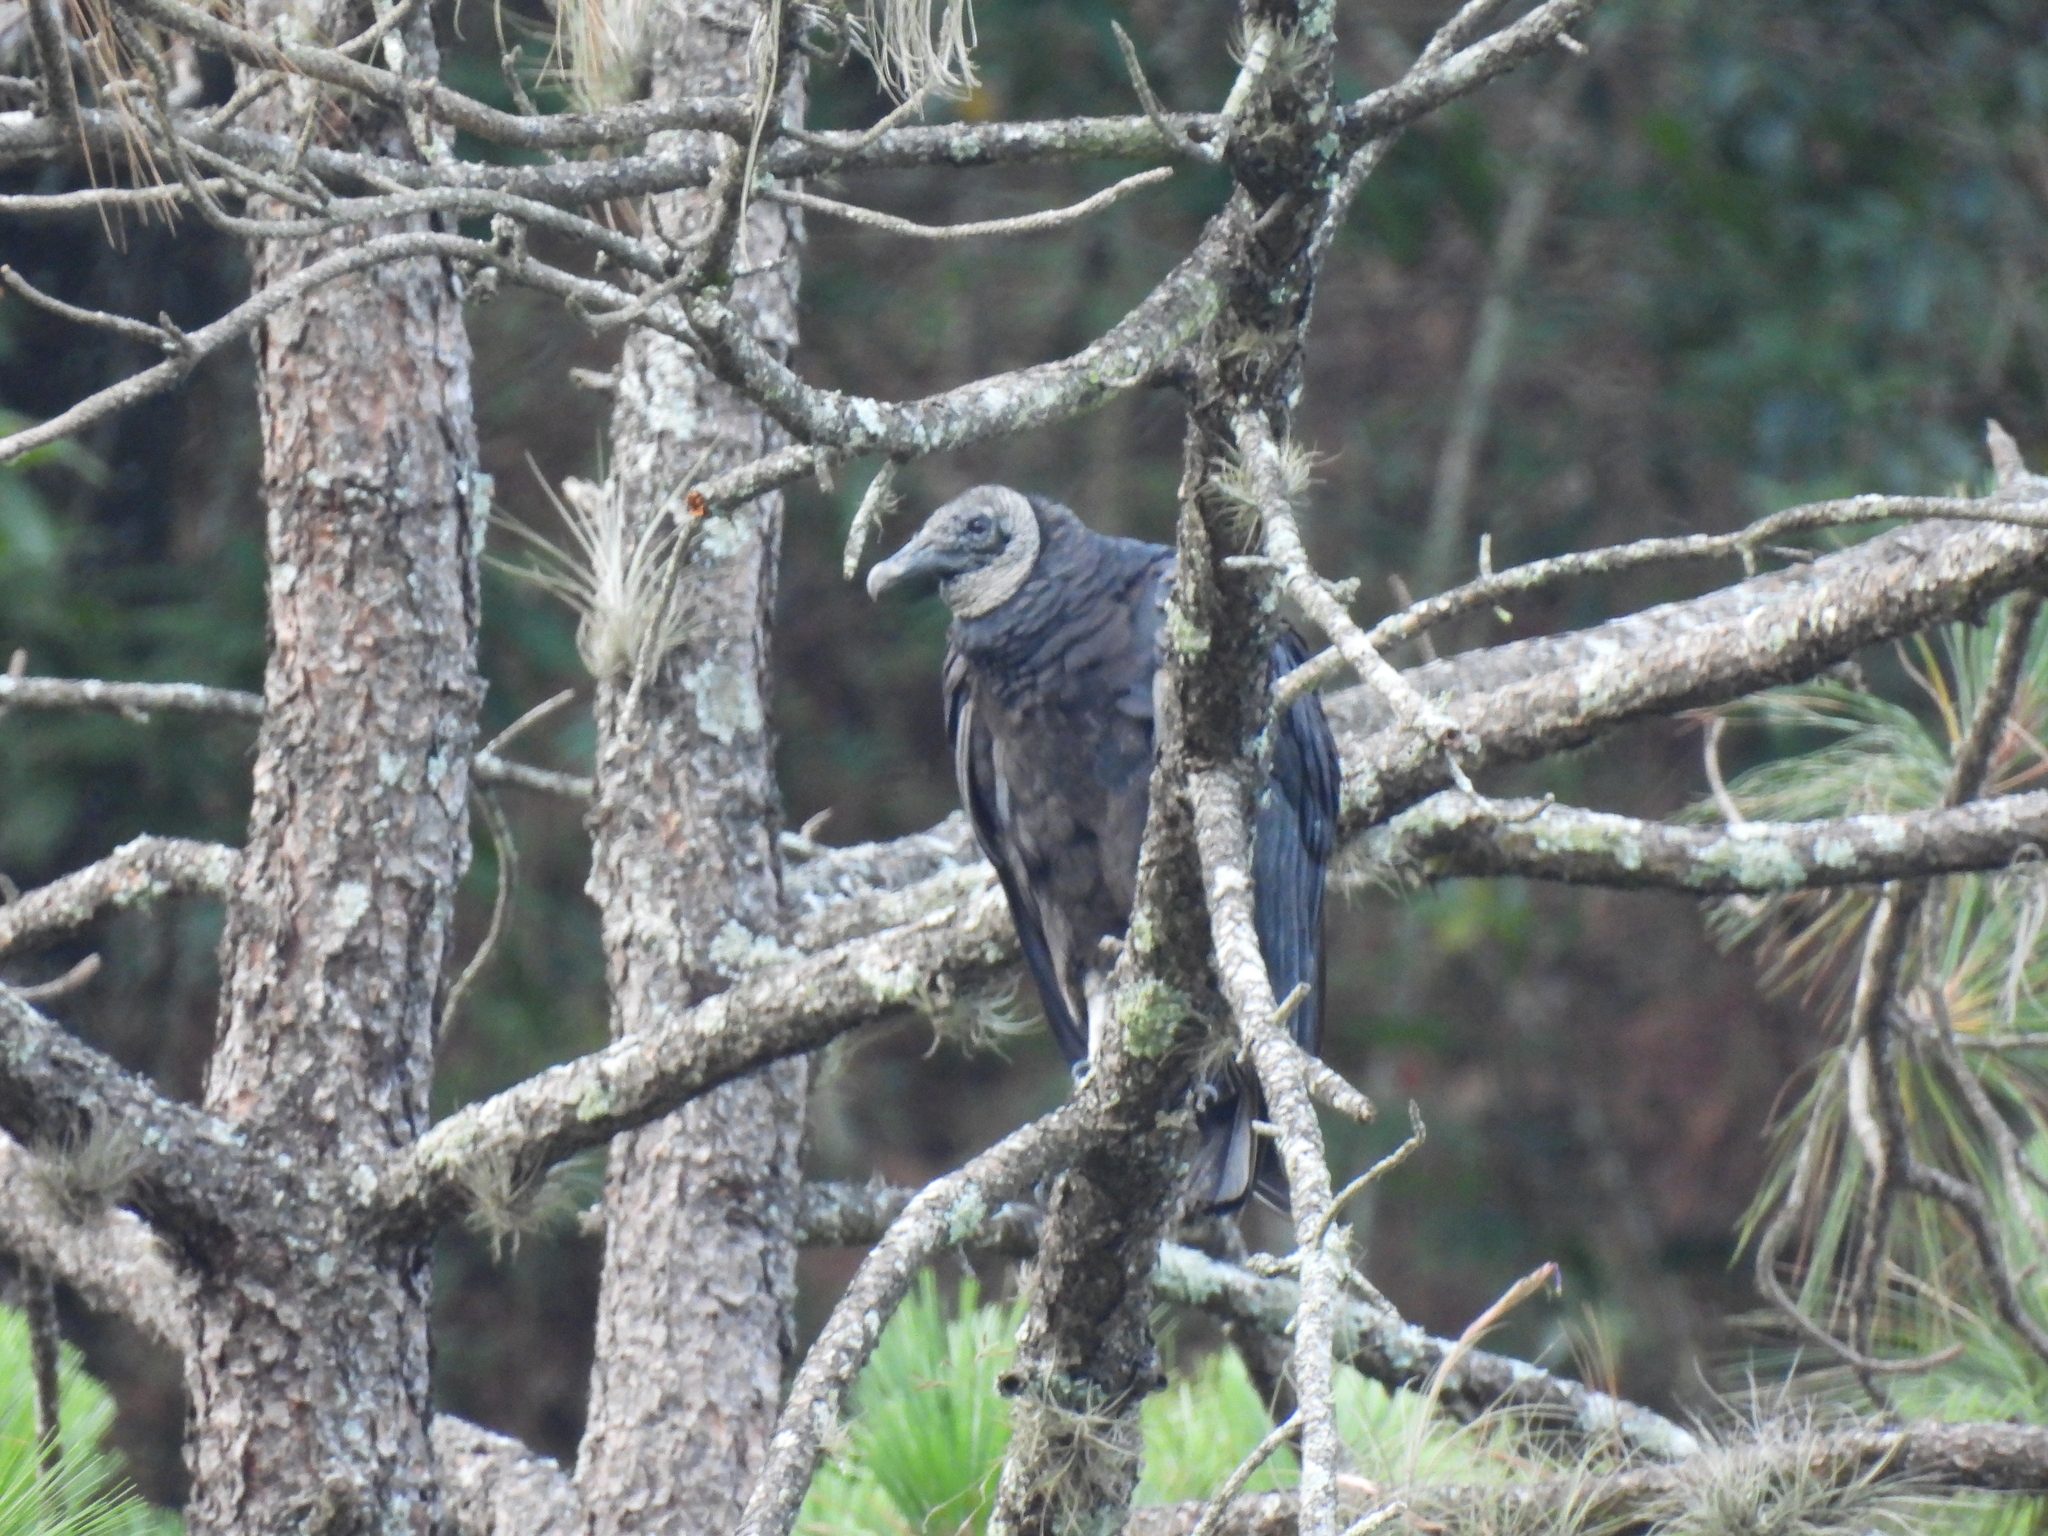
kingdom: Animalia
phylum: Chordata
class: Aves
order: Accipitriformes
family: Cathartidae
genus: Coragyps
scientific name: Coragyps atratus
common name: Black vulture
